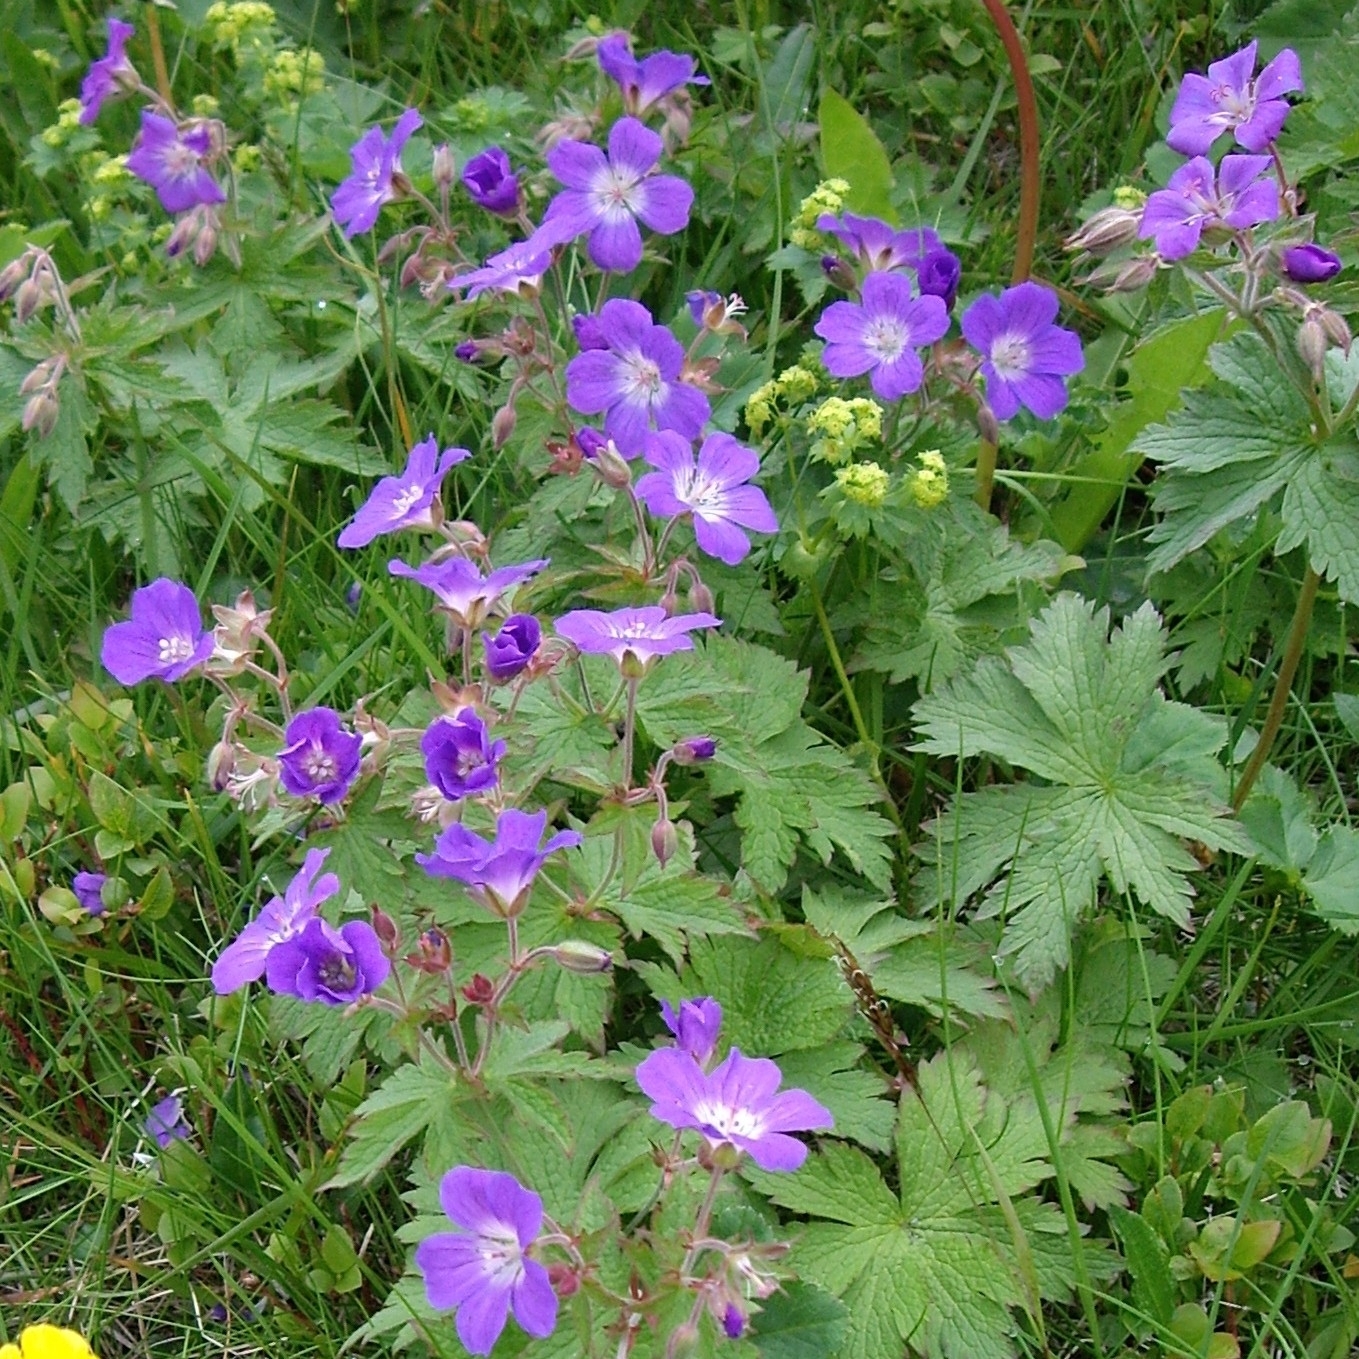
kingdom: Plantae
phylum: Tracheophyta
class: Magnoliopsida
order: Geraniales
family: Geraniaceae
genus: Geranium
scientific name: Geranium sylvaticum
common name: Wood crane's-bill
